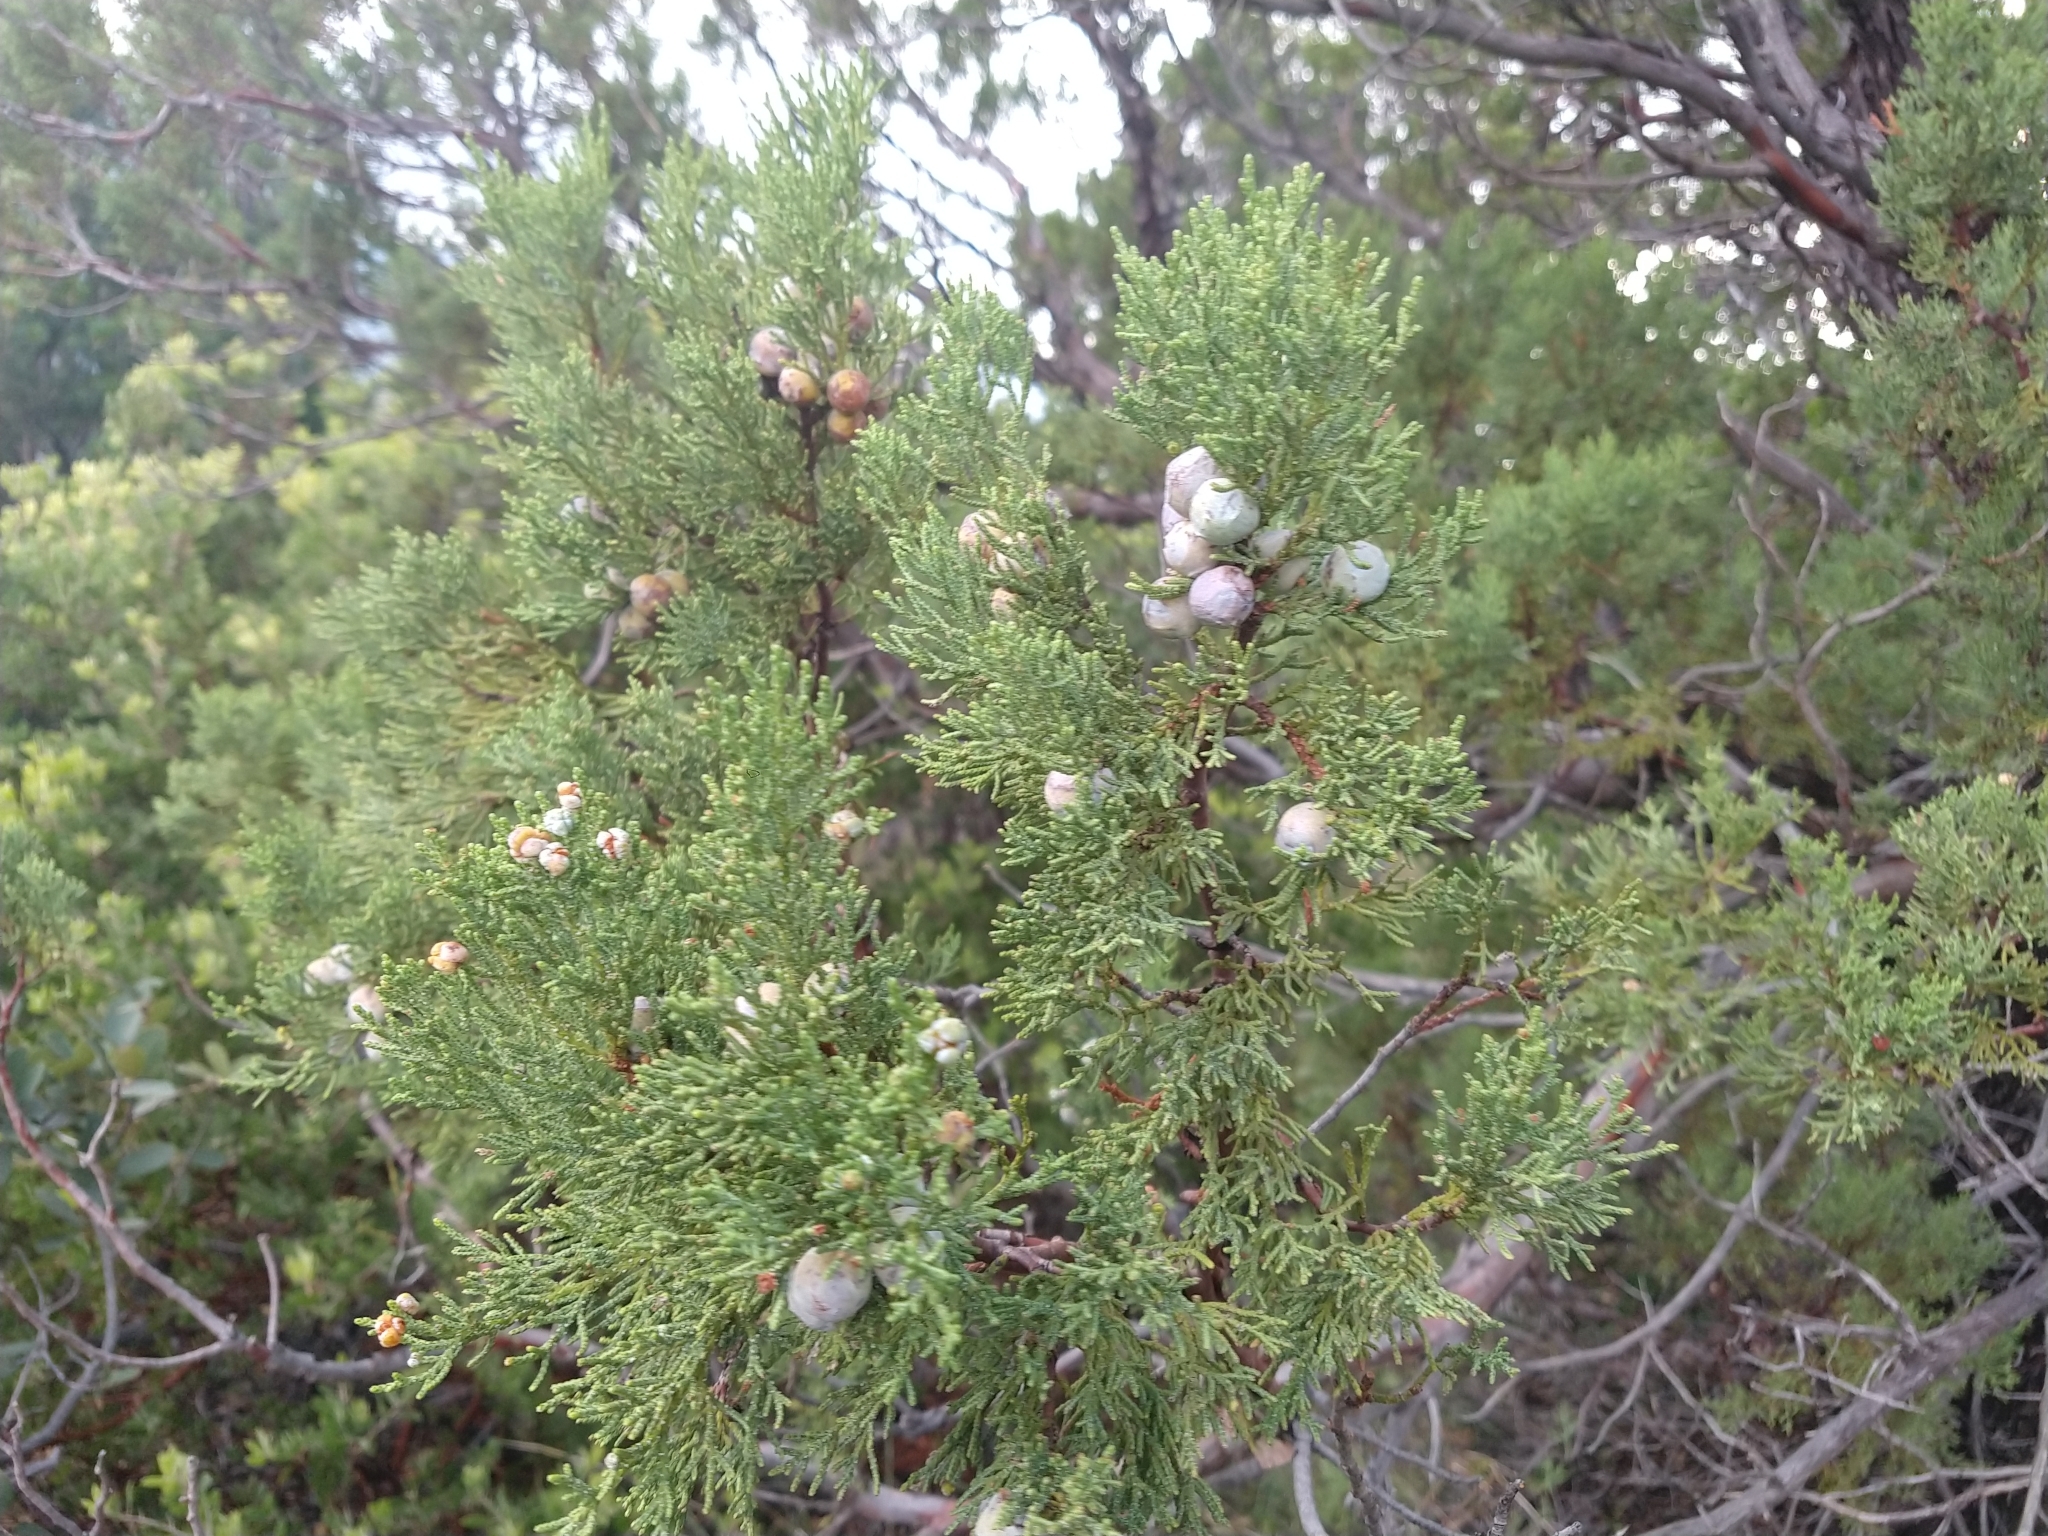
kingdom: Plantae
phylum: Tracheophyta
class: Pinopsida
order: Pinales
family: Cupressaceae
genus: Juniperus
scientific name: Juniperus deppeana
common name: Alligator juniper
